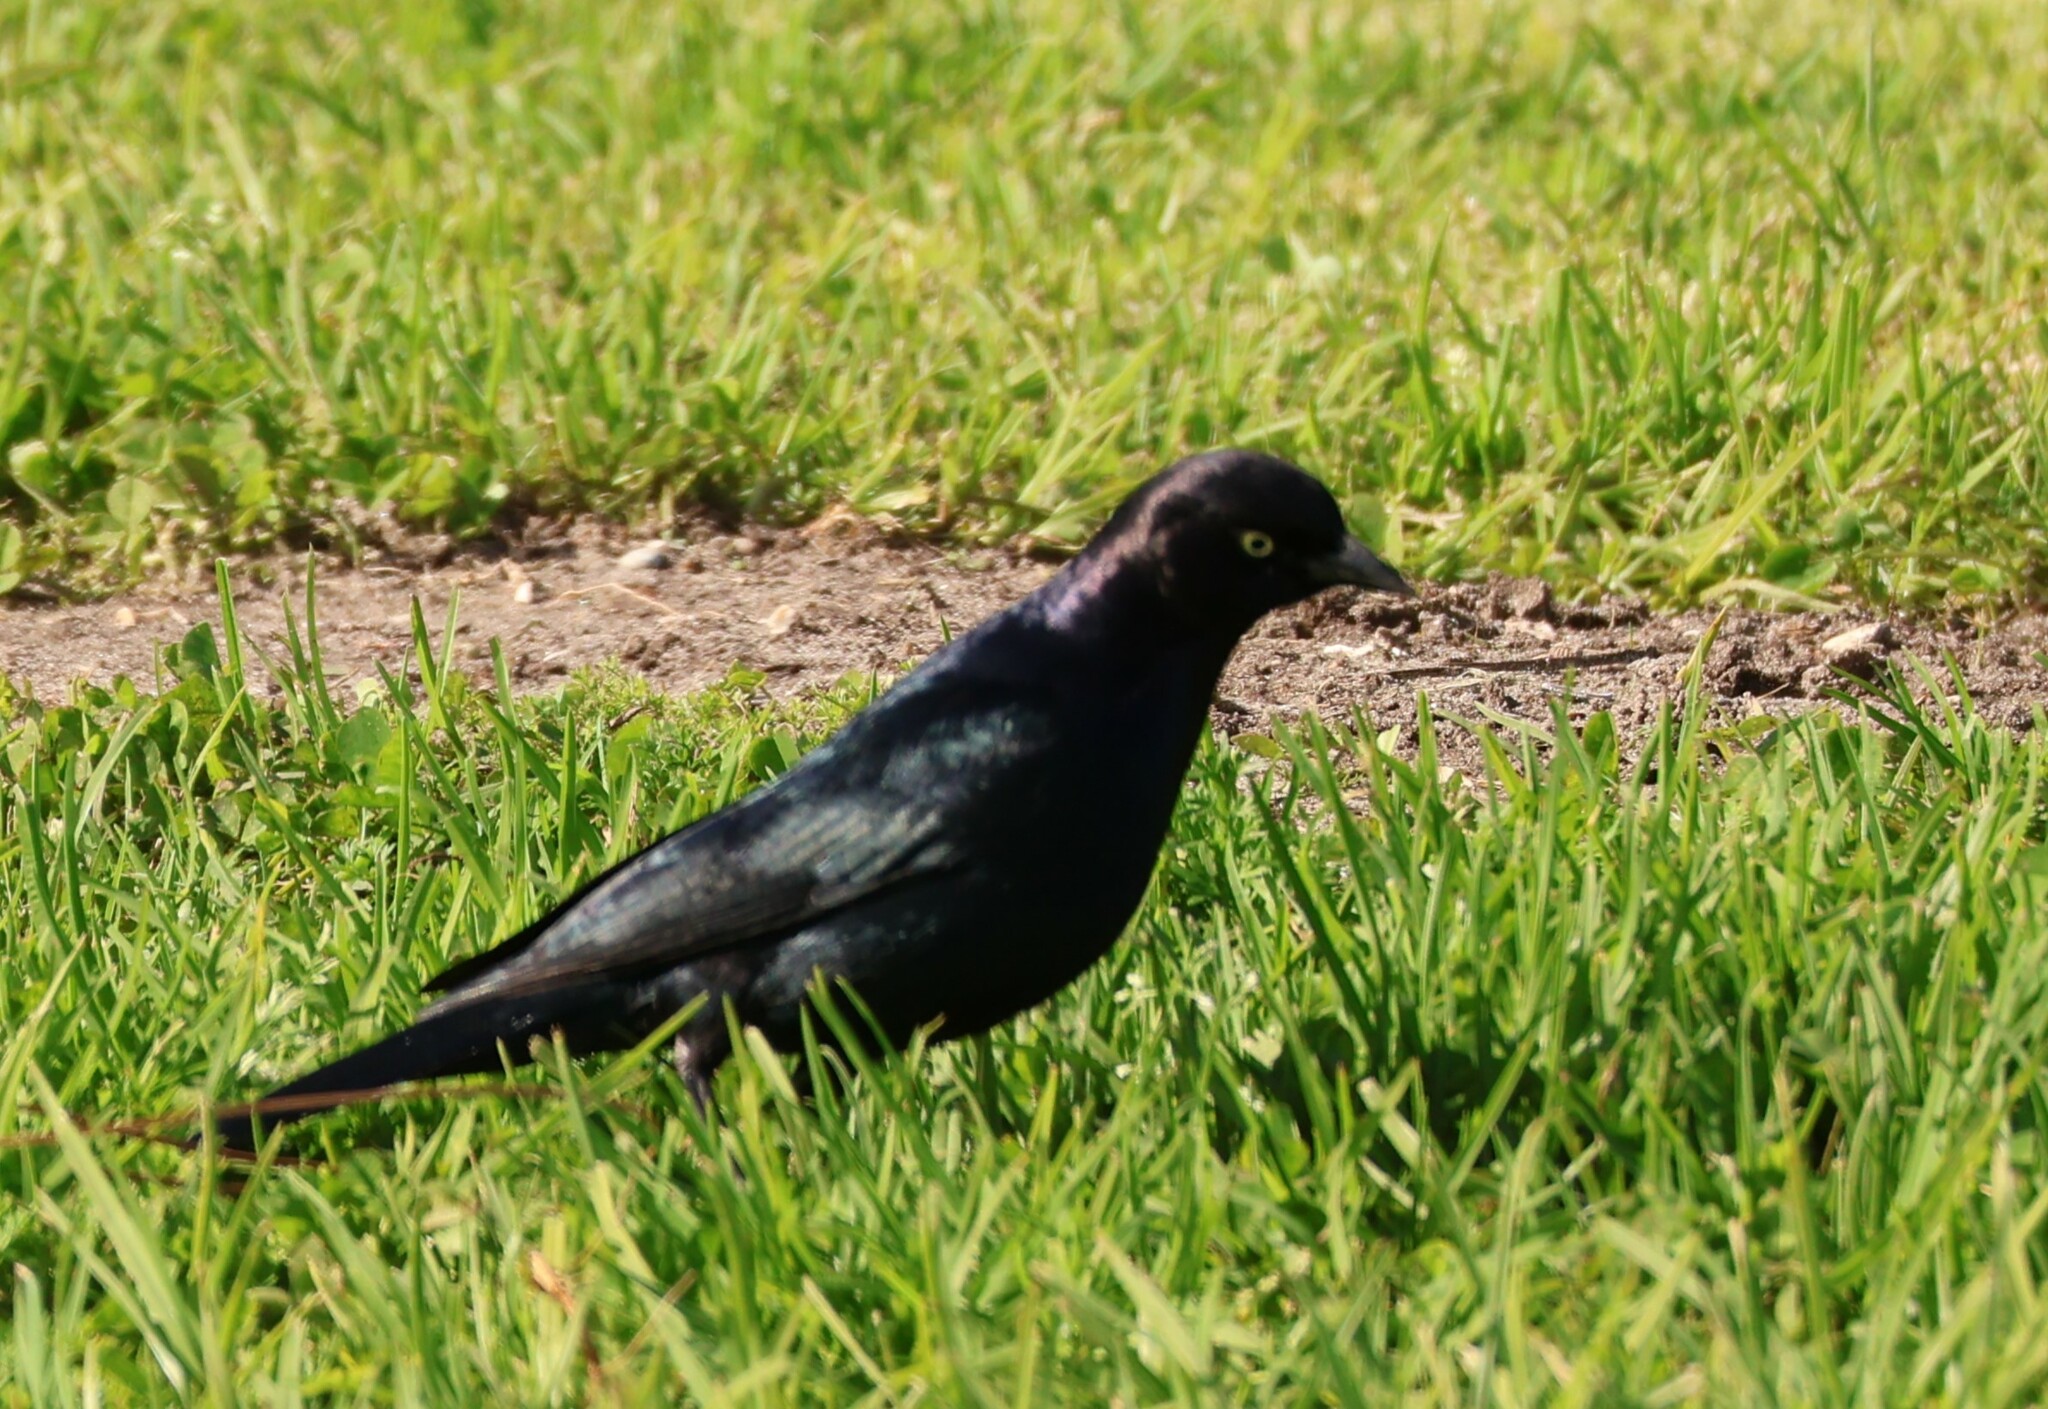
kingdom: Animalia
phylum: Chordata
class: Aves
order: Passeriformes
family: Icteridae
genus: Euphagus
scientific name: Euphagus cyanocephalus
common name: Brewer's blackbird
